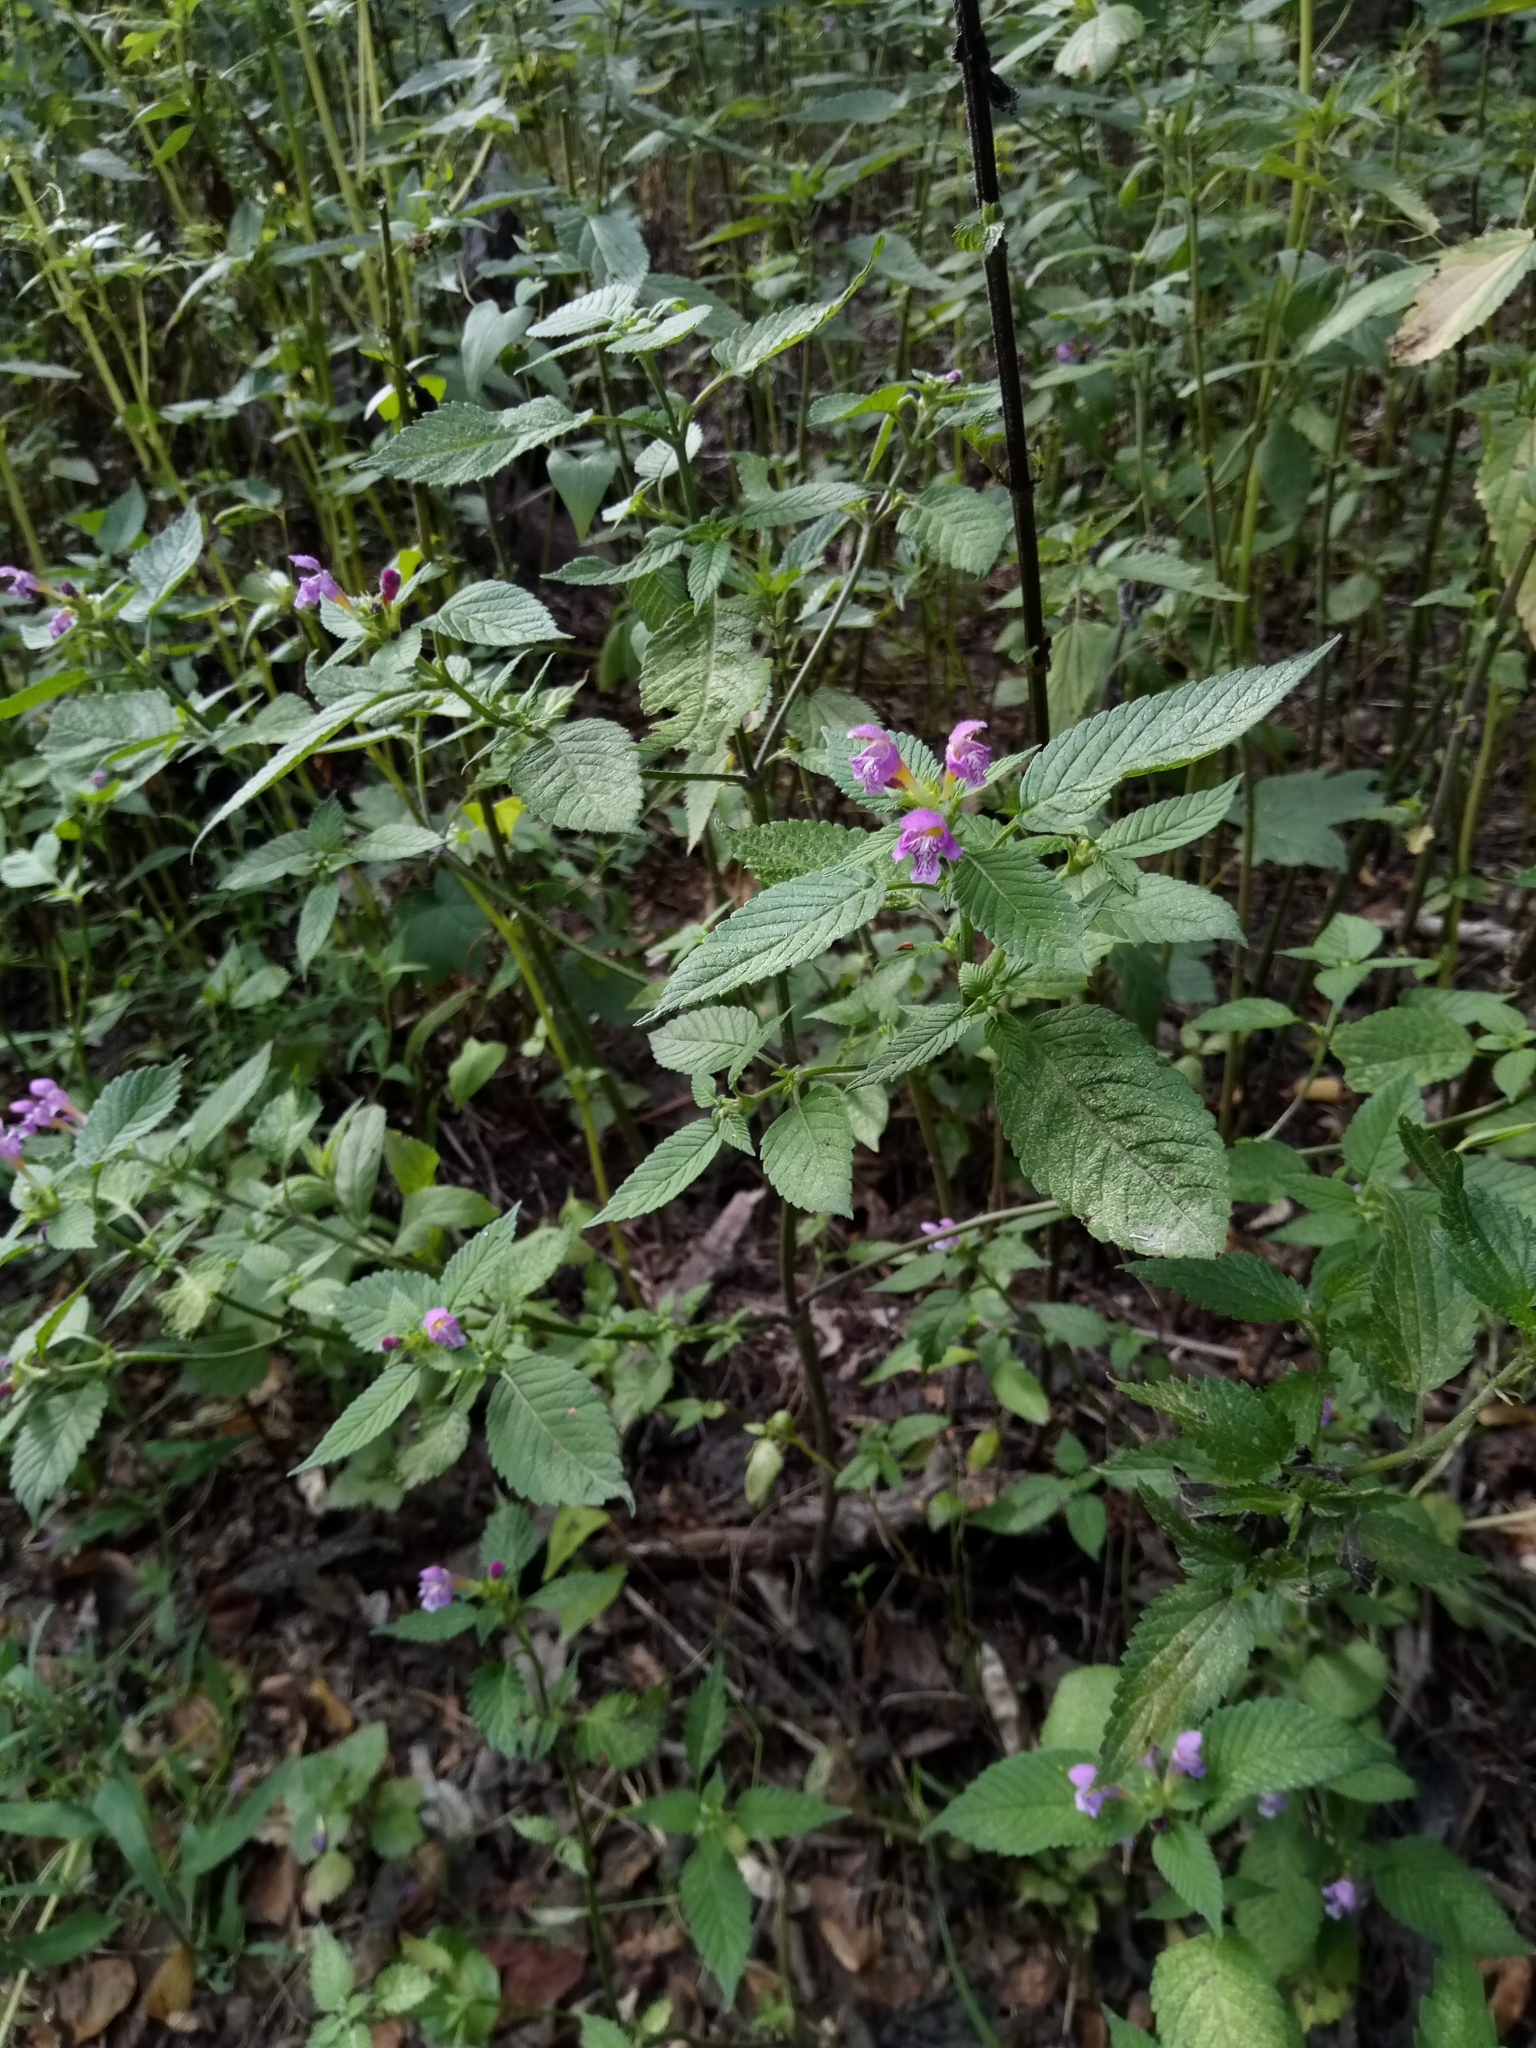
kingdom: Plantae
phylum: Tracheophyta
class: Magnoliopsida
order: Lamiales
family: Lamiaceae
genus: Galeopsis
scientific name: Galeopsis pubescens
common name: Downy hemp-nettle
